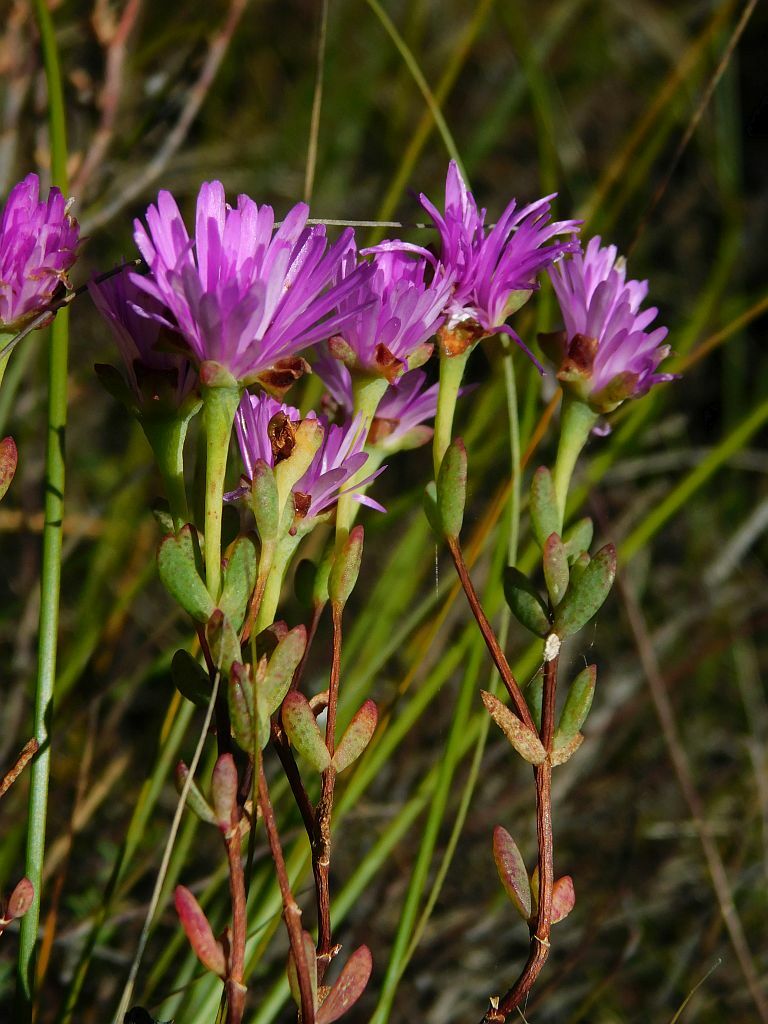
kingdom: Plantae
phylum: Tracheophyta
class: Magnoliopsida
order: Caryophyllales
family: Aizoaceae
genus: Lampranthus
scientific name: Lampranthus falcatus
